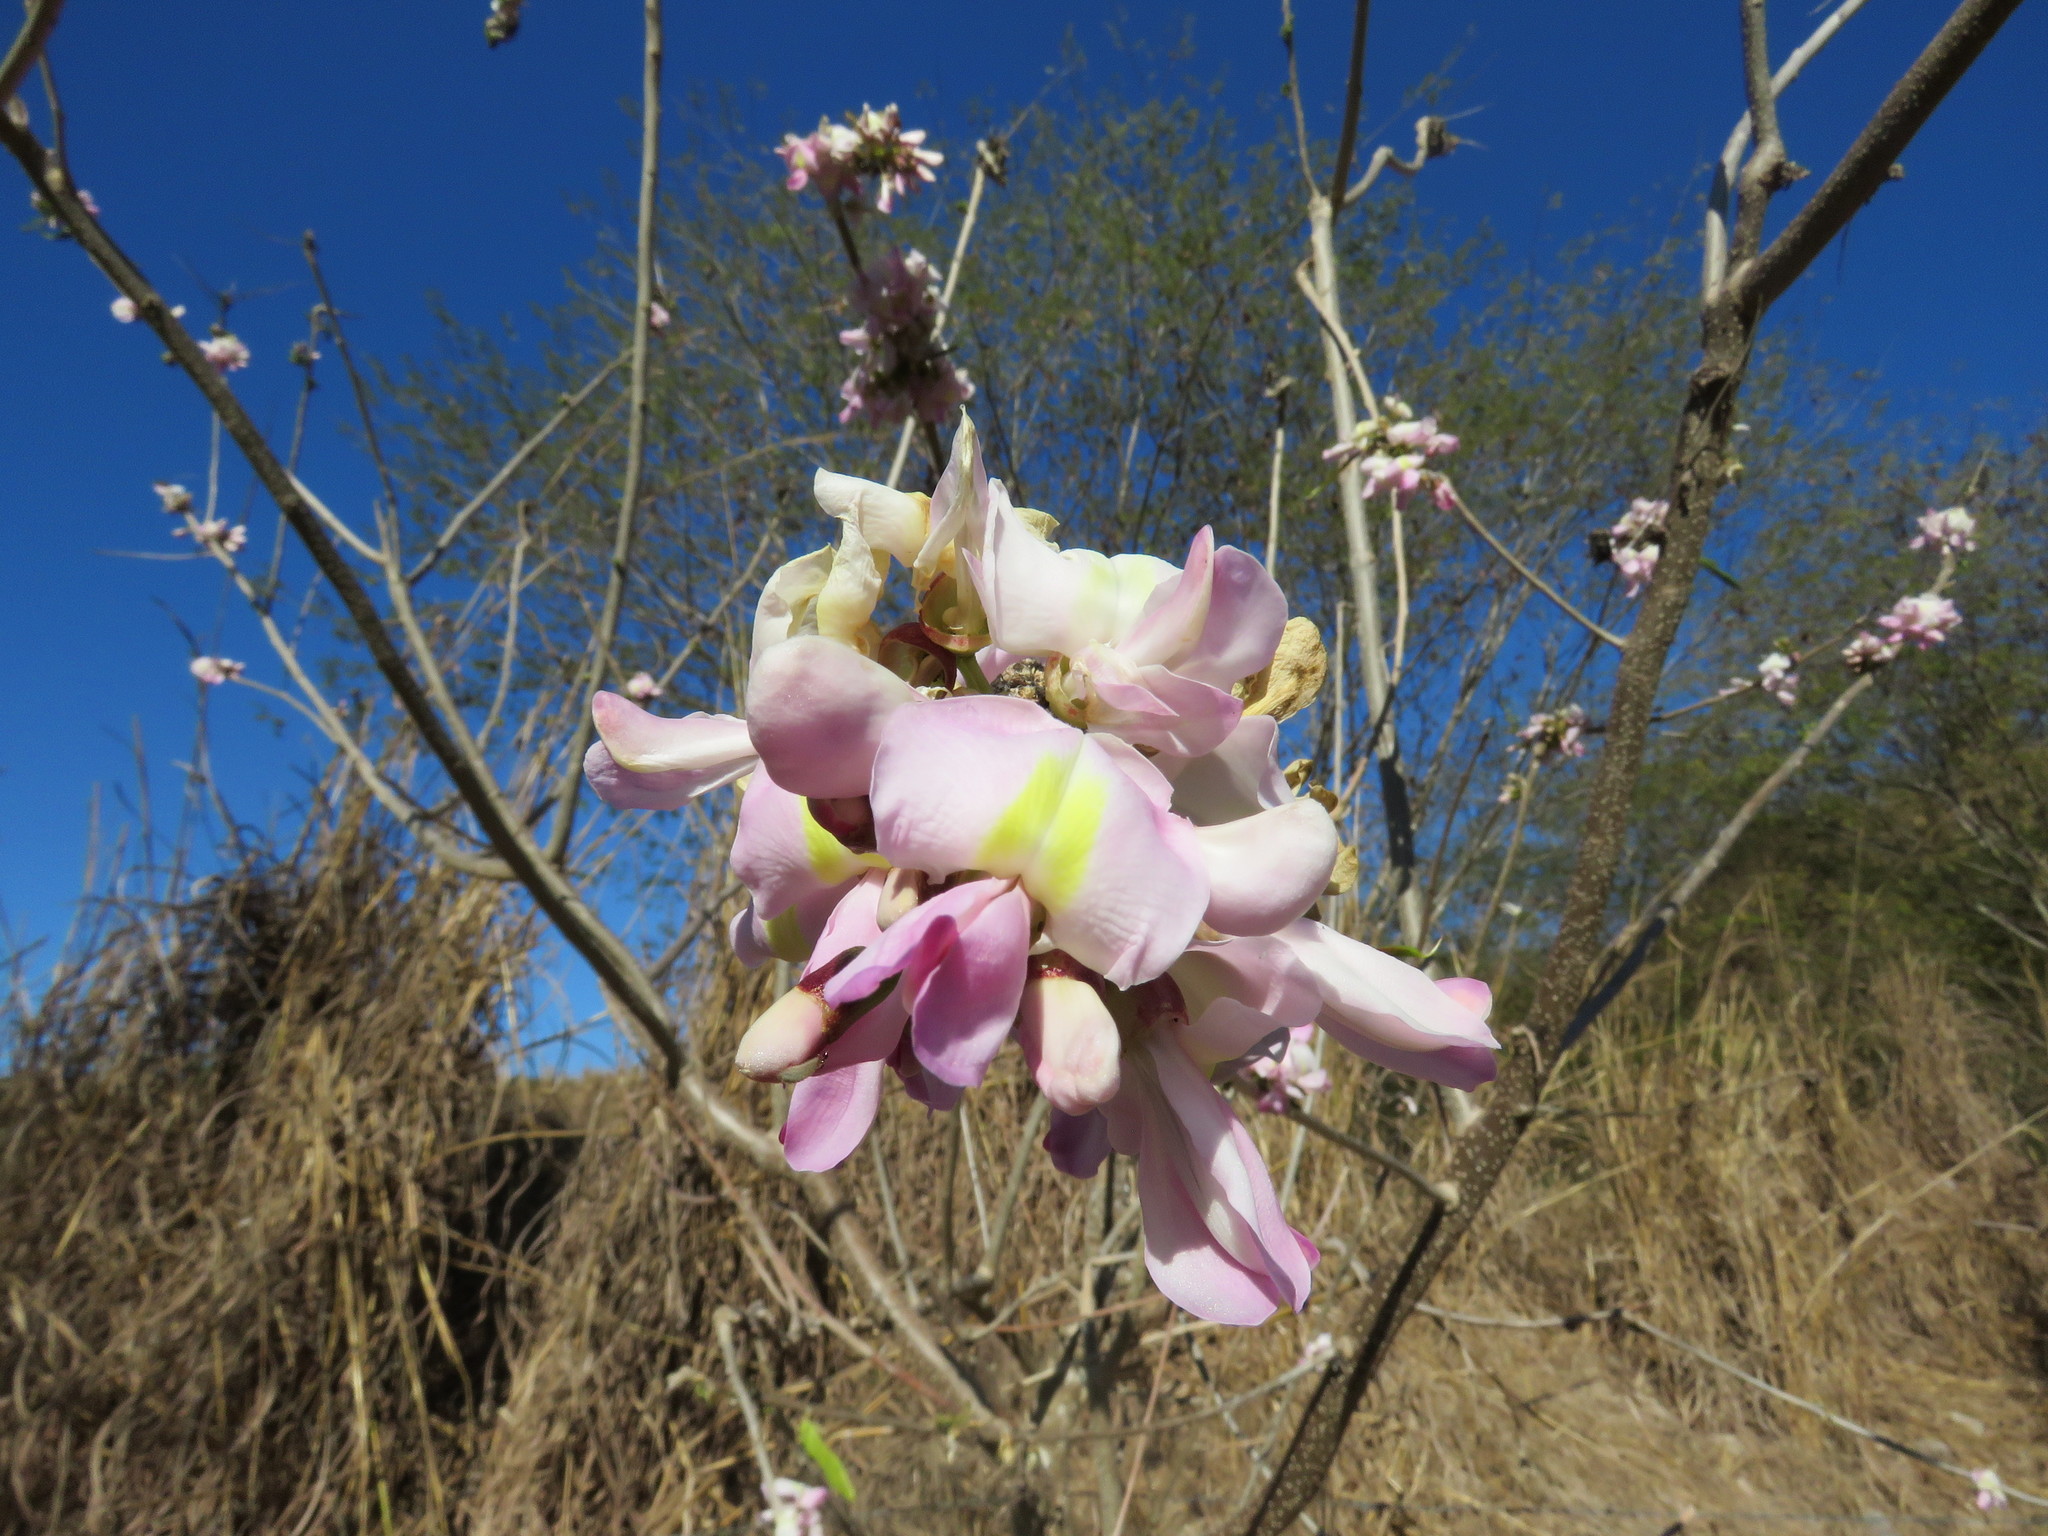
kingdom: Plantae
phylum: Tracheophyta
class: Magnoliopsida
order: Fabales
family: Fabaceae
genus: Gliricidia
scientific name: Gliricidia sepium
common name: Quickstick
